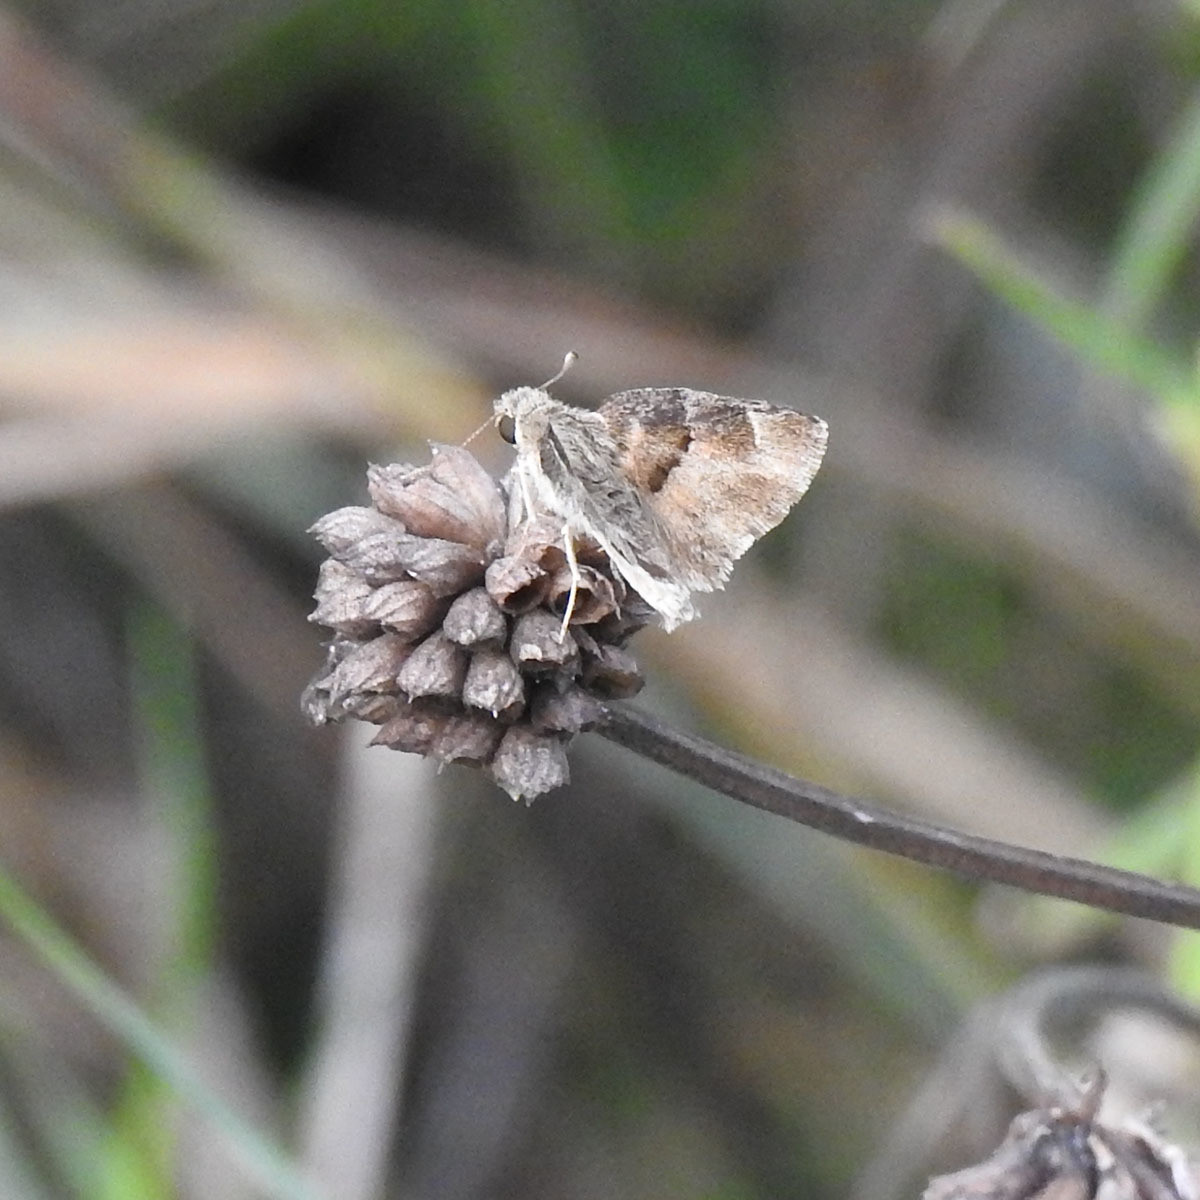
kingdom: Animalia
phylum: Arthropoda
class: Insecta
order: Lepidoptera
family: Hesperiidae
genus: Gomalia
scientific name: Gomalia elma
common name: Green-marbled skipper
